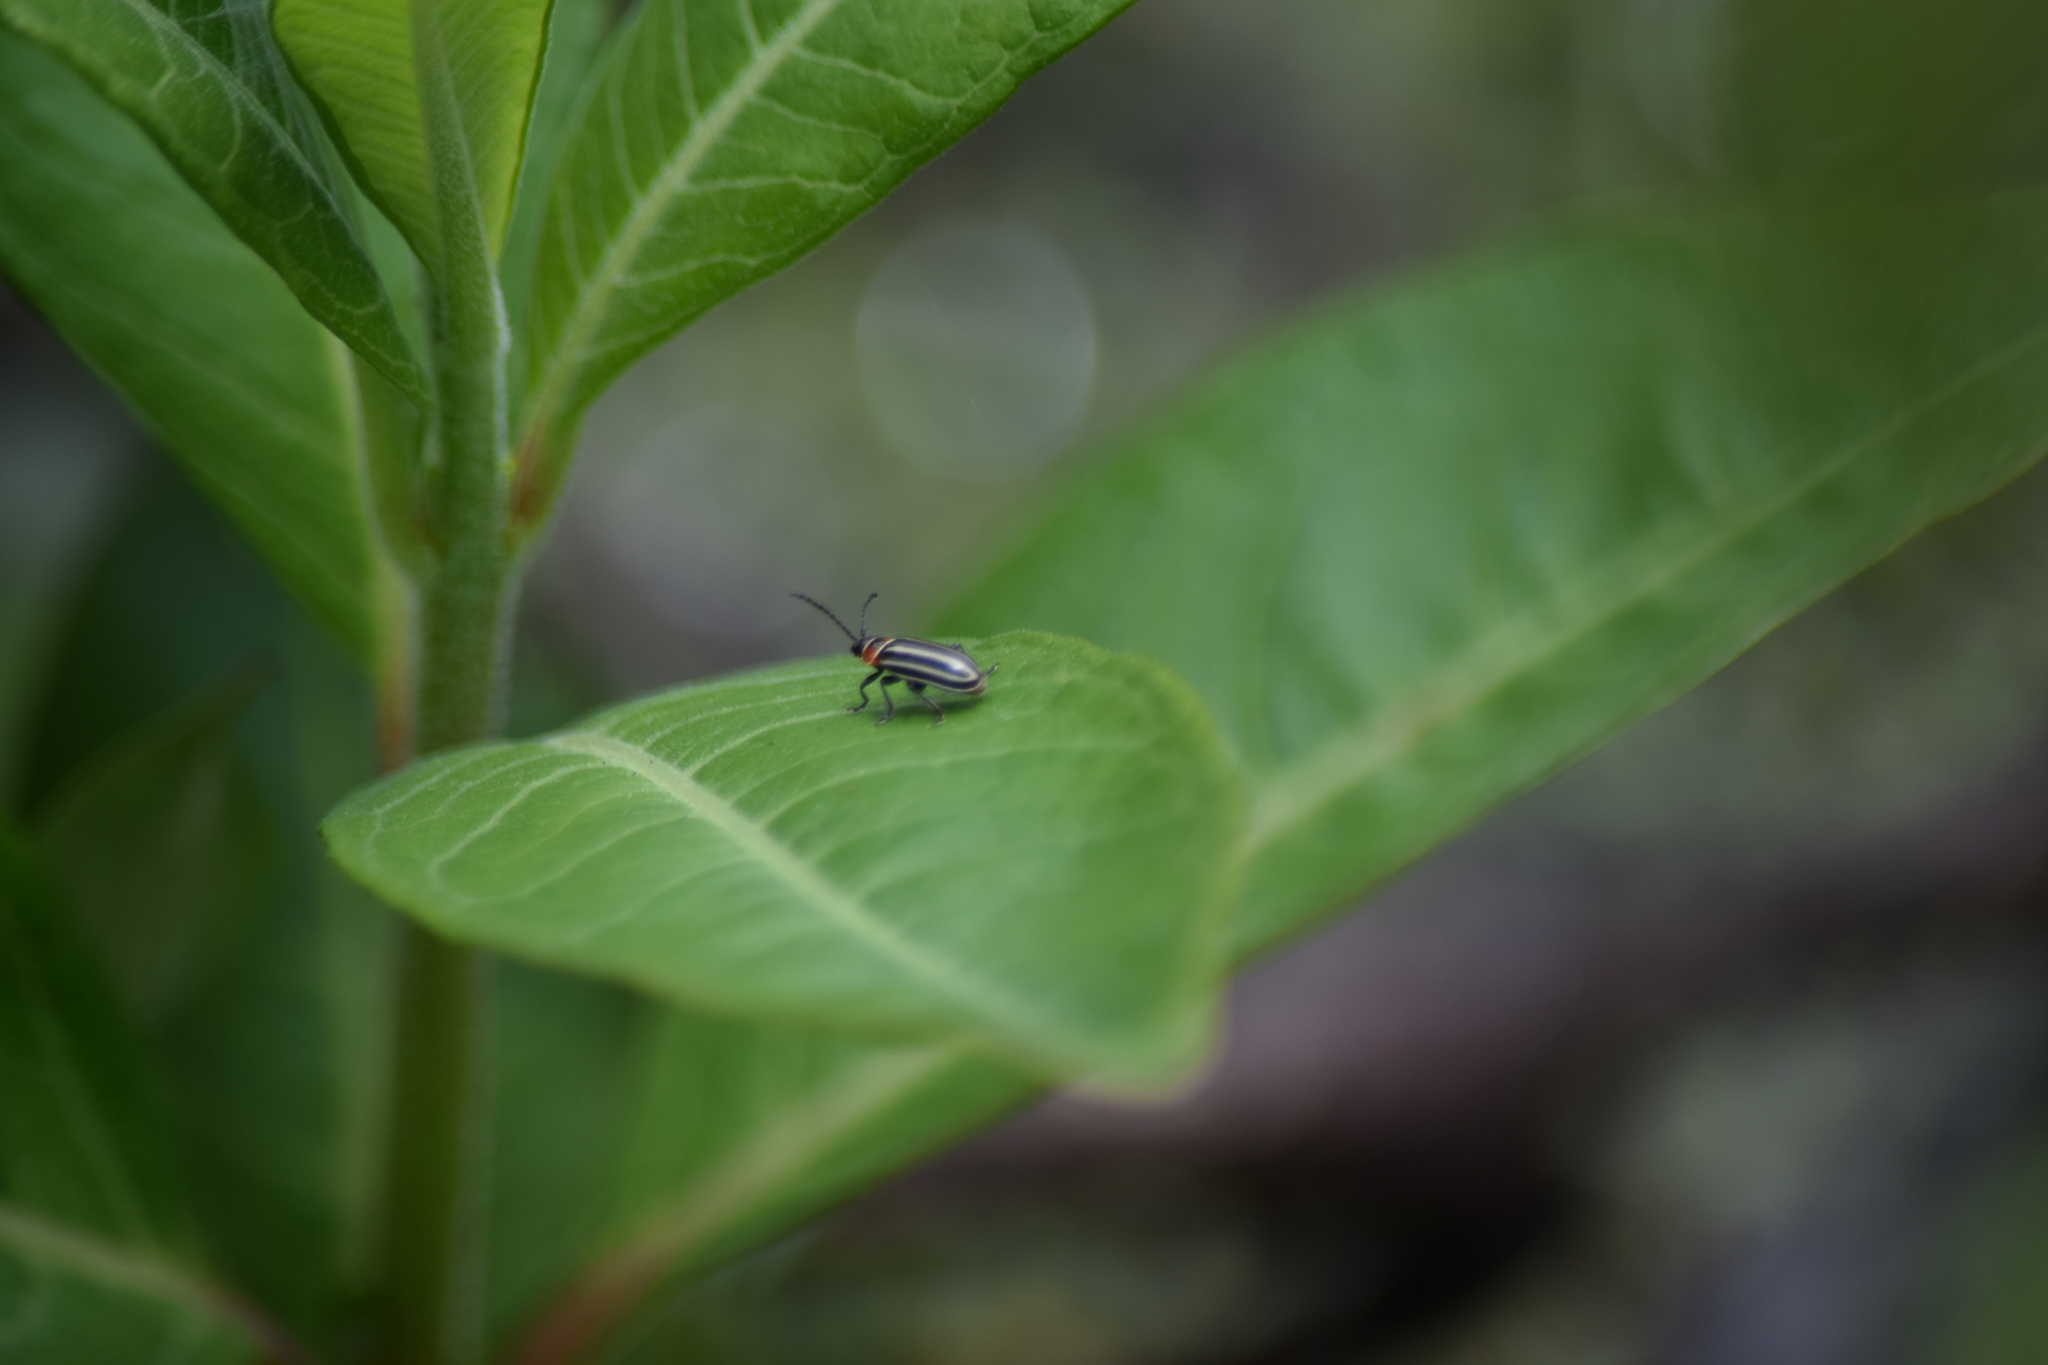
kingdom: Animalia
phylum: Arthropoda
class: Insecta
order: Coleoptera
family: Chrysomelidae
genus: Disonycha
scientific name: Disonycha pensylvanica
